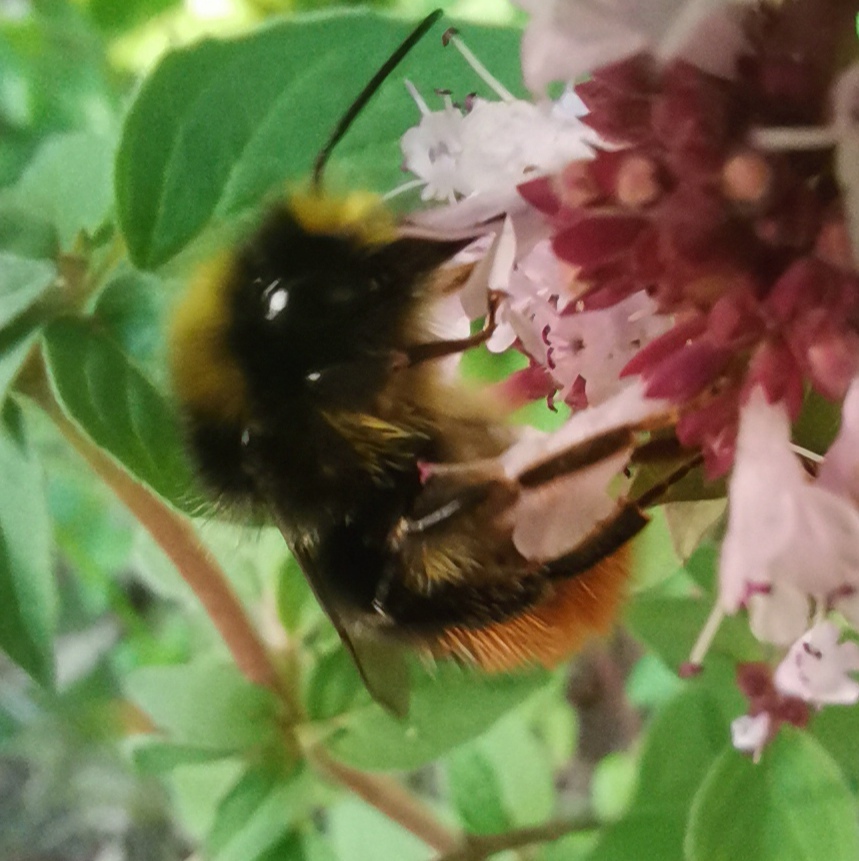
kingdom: Animalia
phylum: Arthropoda
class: Insecta
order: Hymenoptera
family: Apidae
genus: Bombus
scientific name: Bombus lapidarius
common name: Large red-tailed humble-bee
